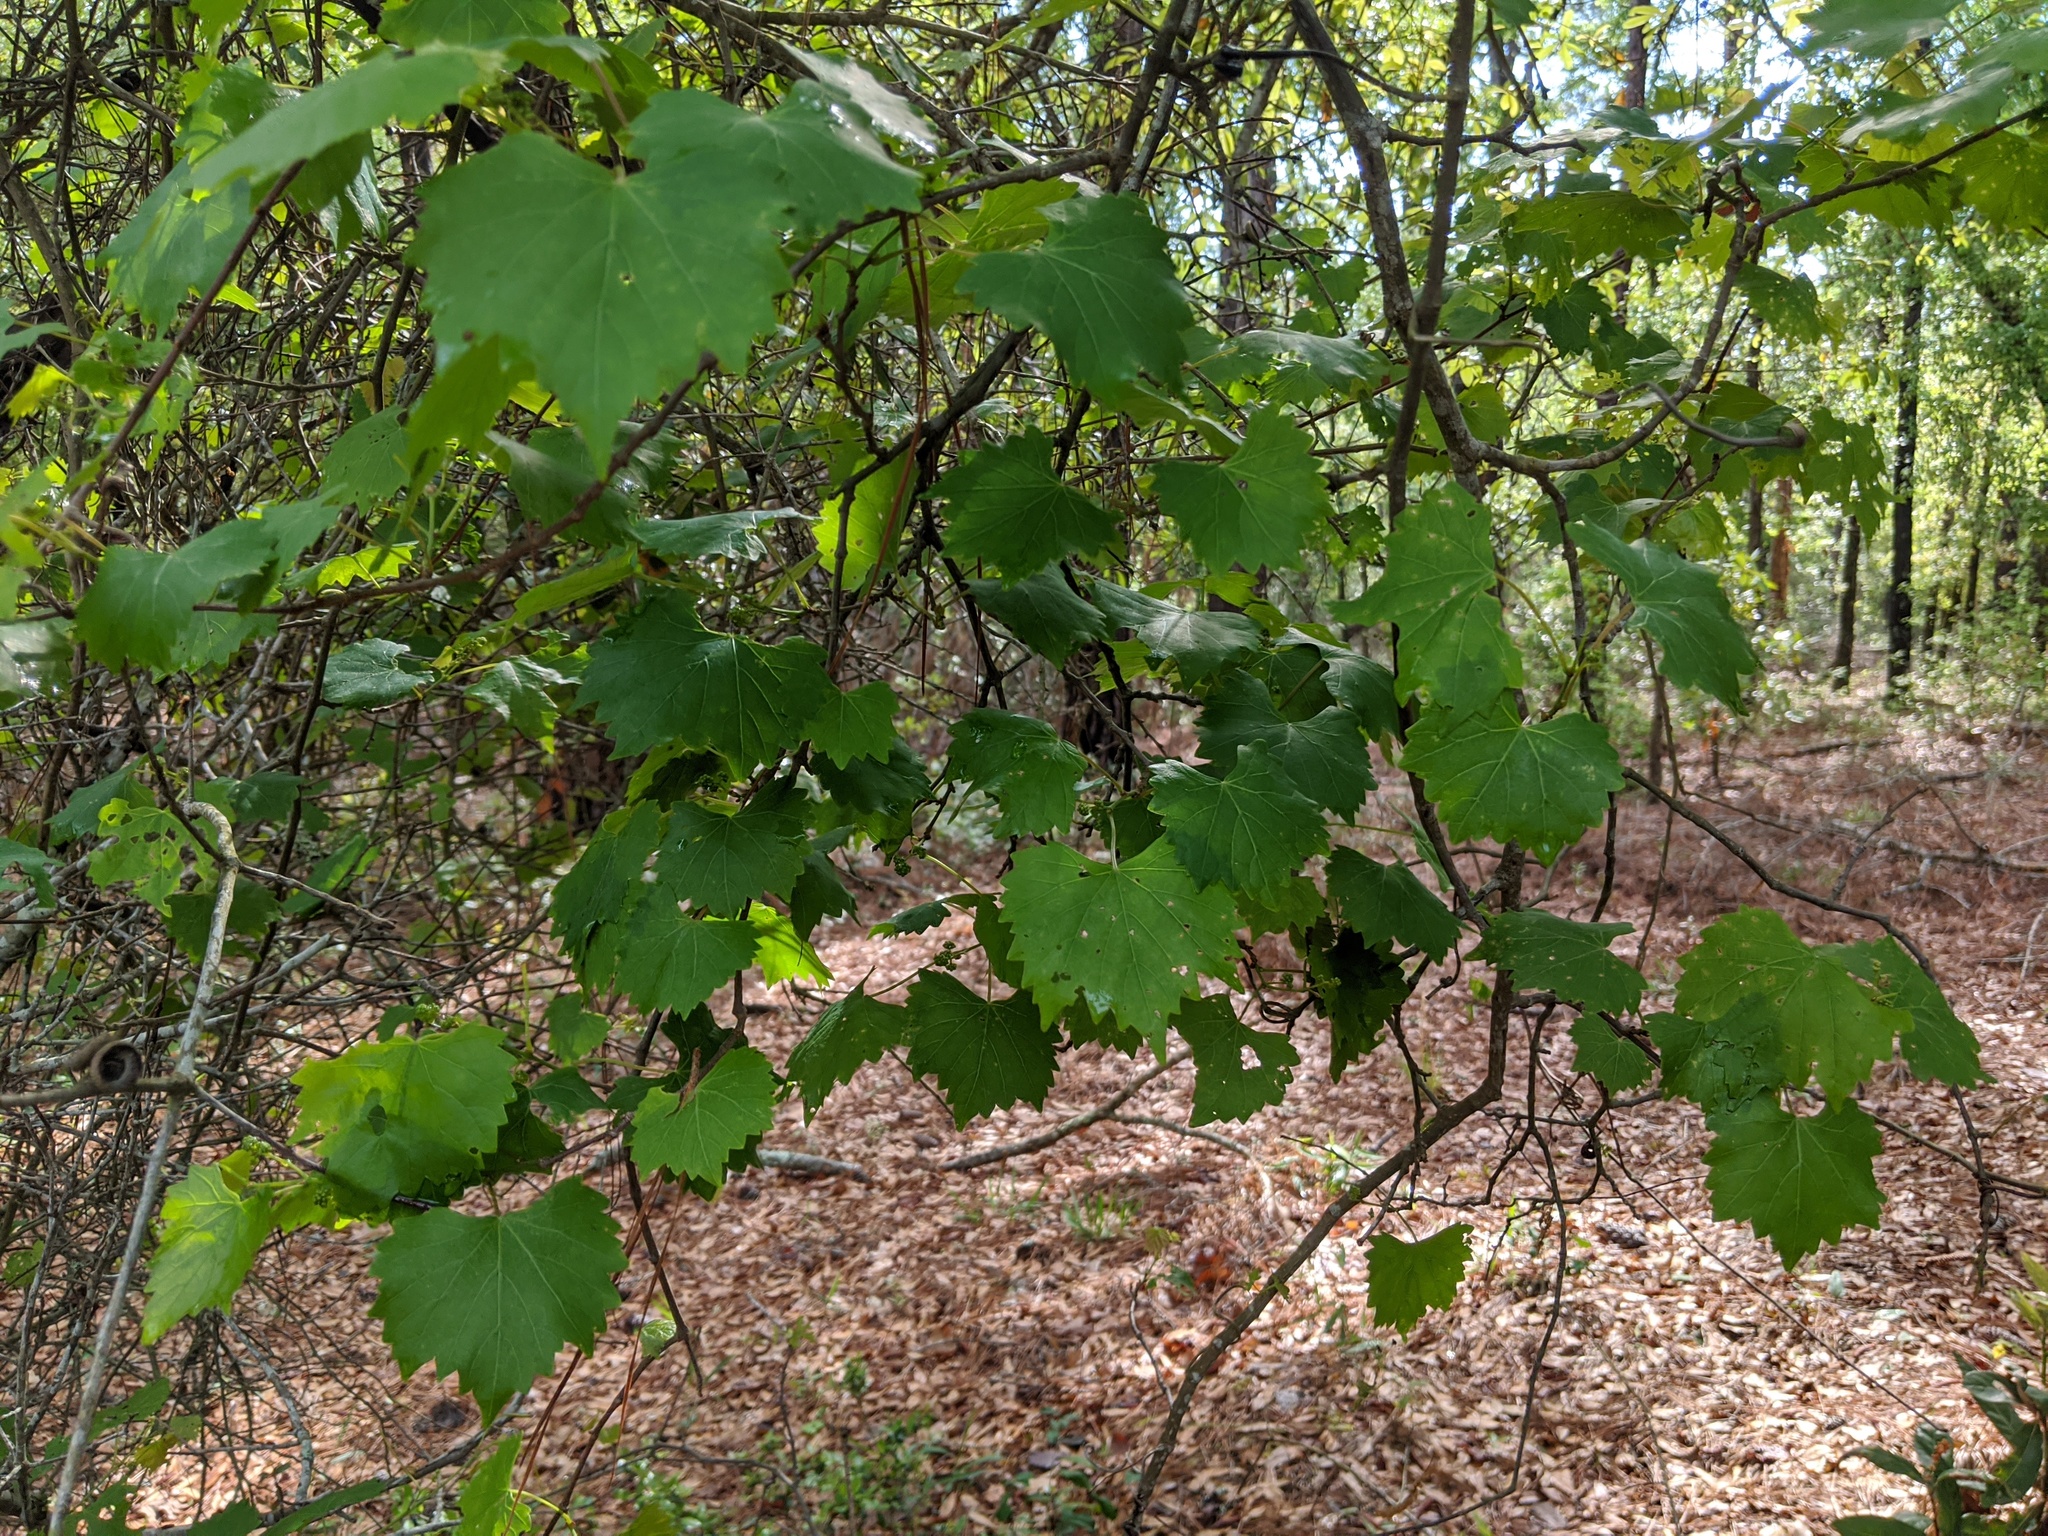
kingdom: Plantae
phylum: Tracheophyta
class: Magnoliopsida
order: Vitales
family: Vitaceae
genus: Vitis
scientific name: Vitis rotundifolia
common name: Muscadine grape
